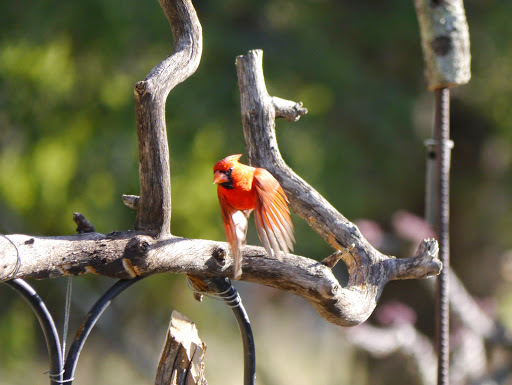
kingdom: Animalia
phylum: Chordata
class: Aves
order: Passeriformes
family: Cardinalidae
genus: Cardinalis
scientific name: Cardinalis cardinalis
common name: Northern cardinal
